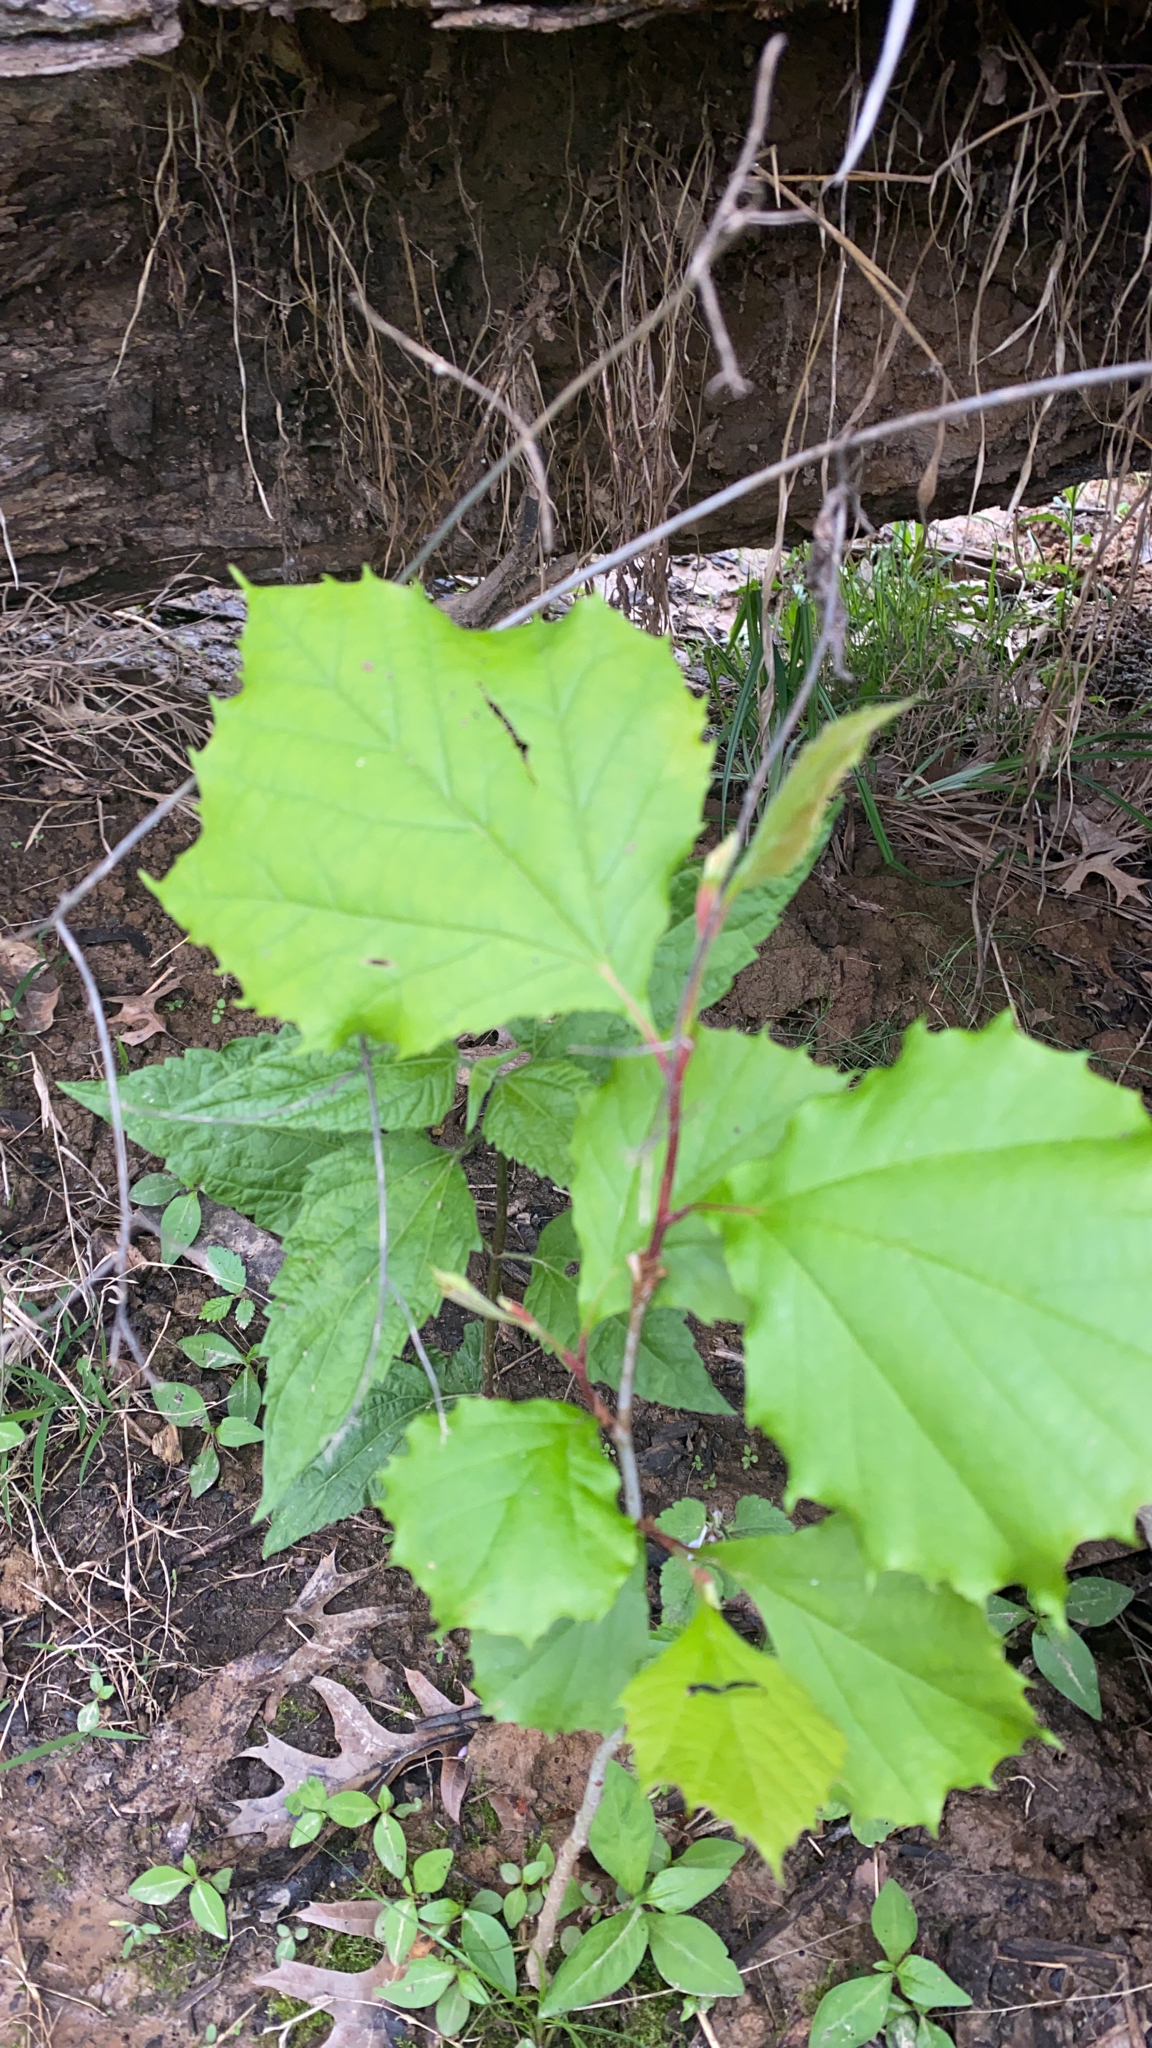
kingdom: Plantae
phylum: Tracheophyta
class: Magnoliopsida
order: Proteales
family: Platanaceae
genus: Platanus
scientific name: Platanus occidentalis
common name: American sycamore
